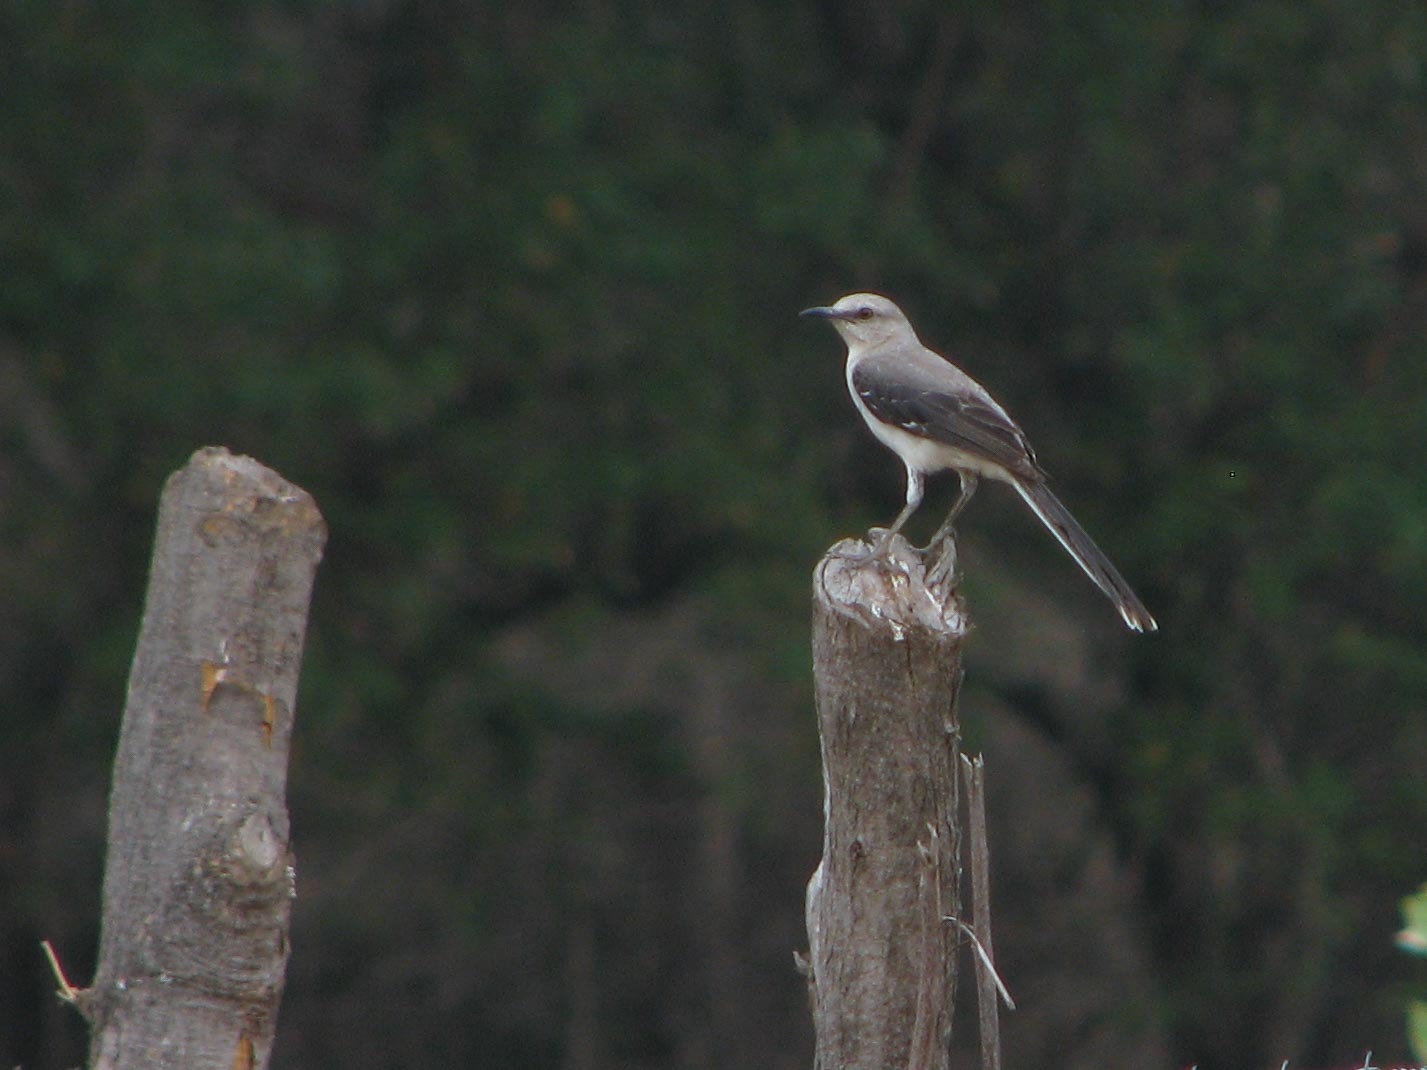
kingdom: Animalia
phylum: Chordata
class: Aves
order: Passeriformes
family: Mimidae
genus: Mimus
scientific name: Mimus gilvus
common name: Tropical mockingbird
